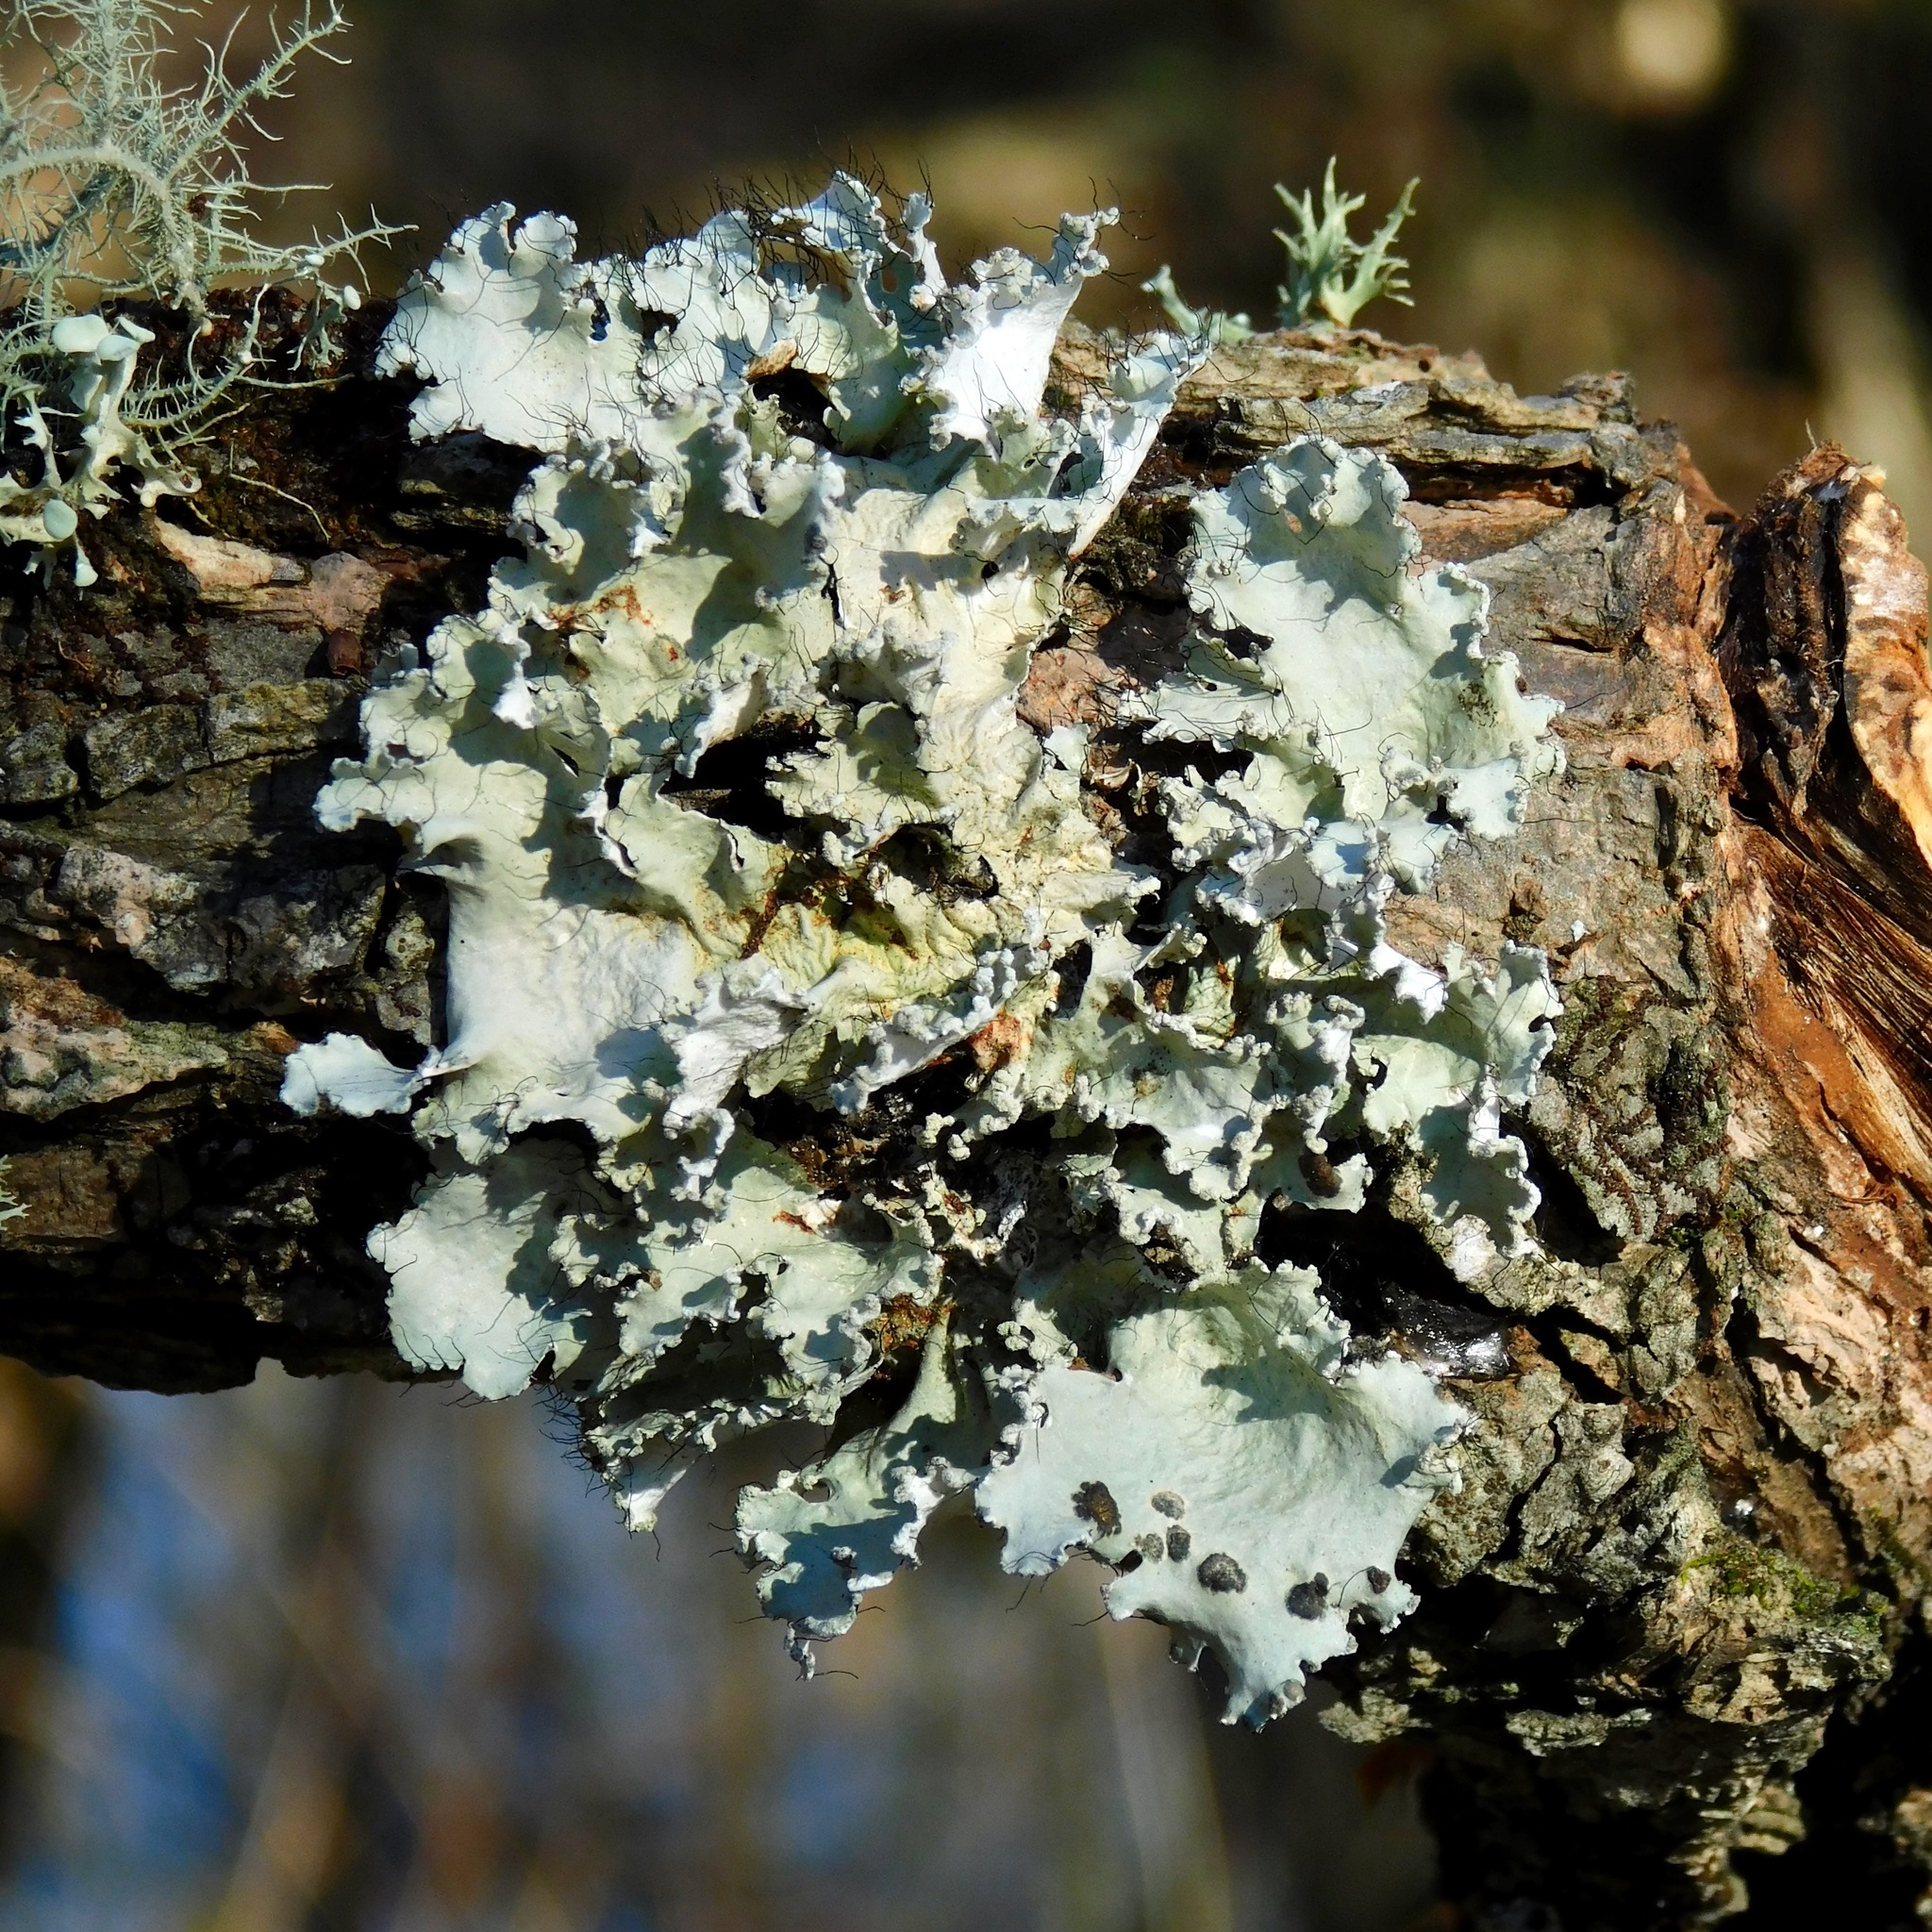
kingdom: Fungi
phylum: Ascomycota
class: Lecanoromycetes
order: Lecanorales
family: Parmeliaceae
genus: Parmotrema
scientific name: Parmotrema hypotropum
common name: Powdered ruffle lichen
